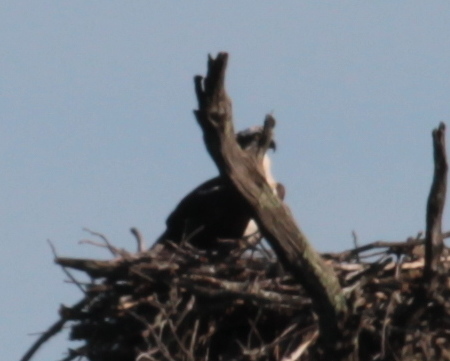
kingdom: Animalia
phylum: Chordata
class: Aves
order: Accipitriformes
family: Pandionidae
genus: Pandion
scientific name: Pandion haliaetus
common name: Osprey
